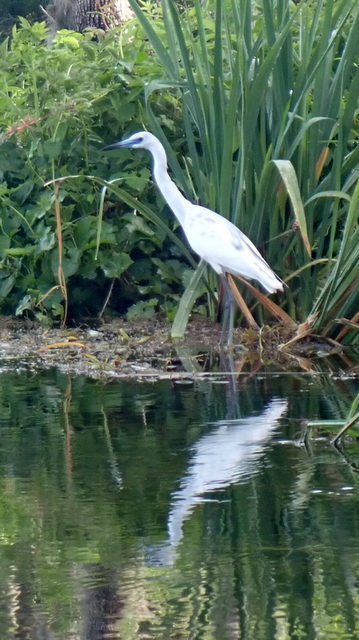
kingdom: Animalia
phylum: Chordata
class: Aves
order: Pelecaniformes
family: Ardeidae
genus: Egretta
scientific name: Egretta caerulea
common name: Little blue heron
